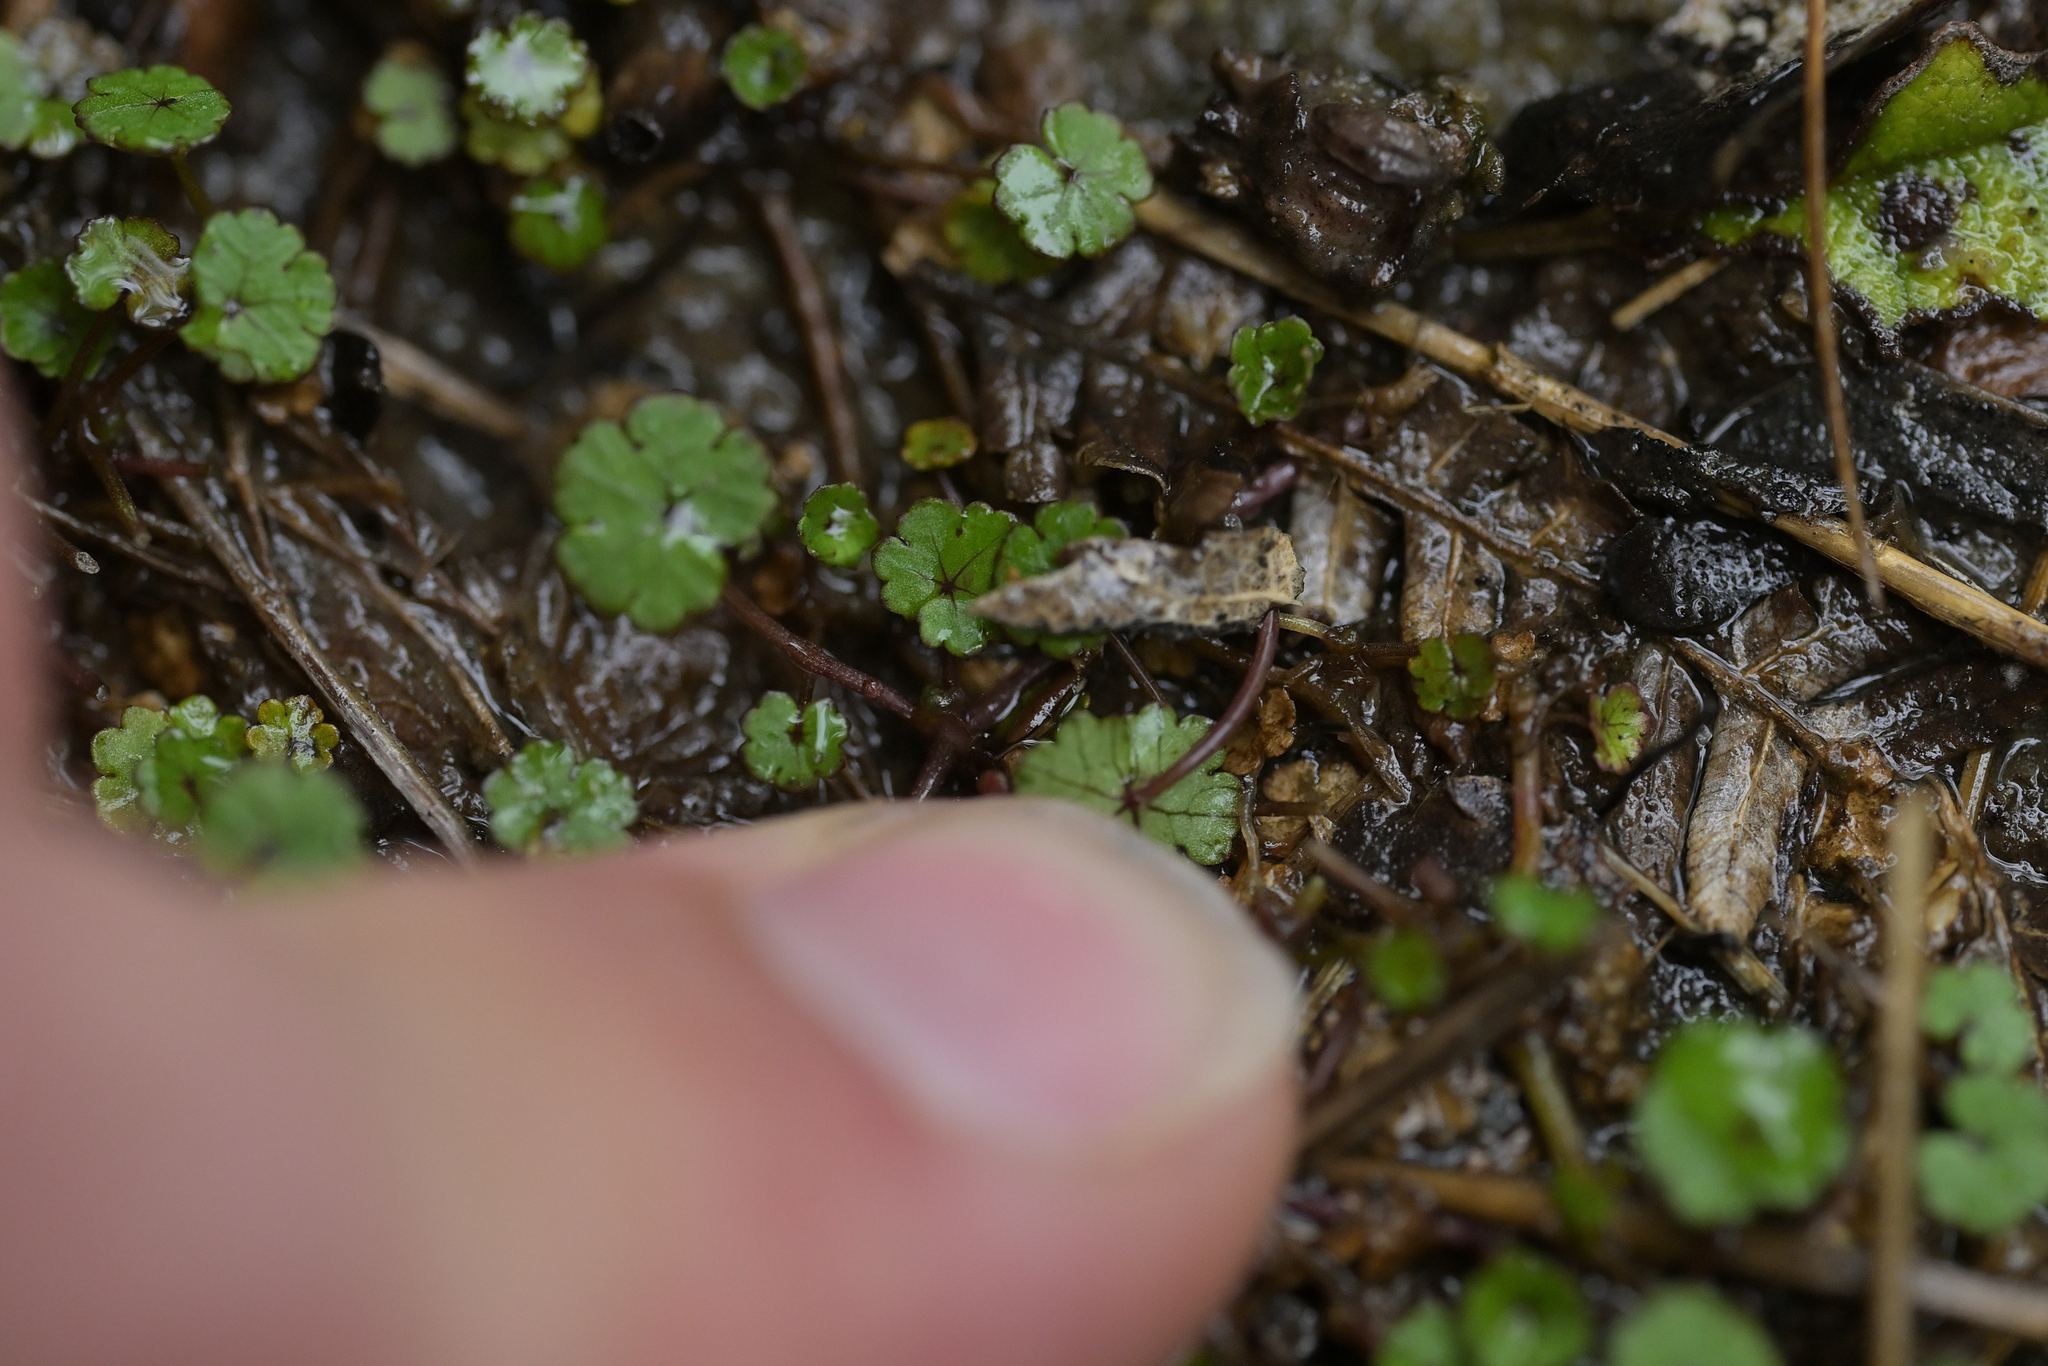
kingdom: Plantae
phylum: Tracheophyta
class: Magnoliopsida
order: Apiales
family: Araliaceae
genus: Hydrocotyle
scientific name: Hydrocotyle microphylla
